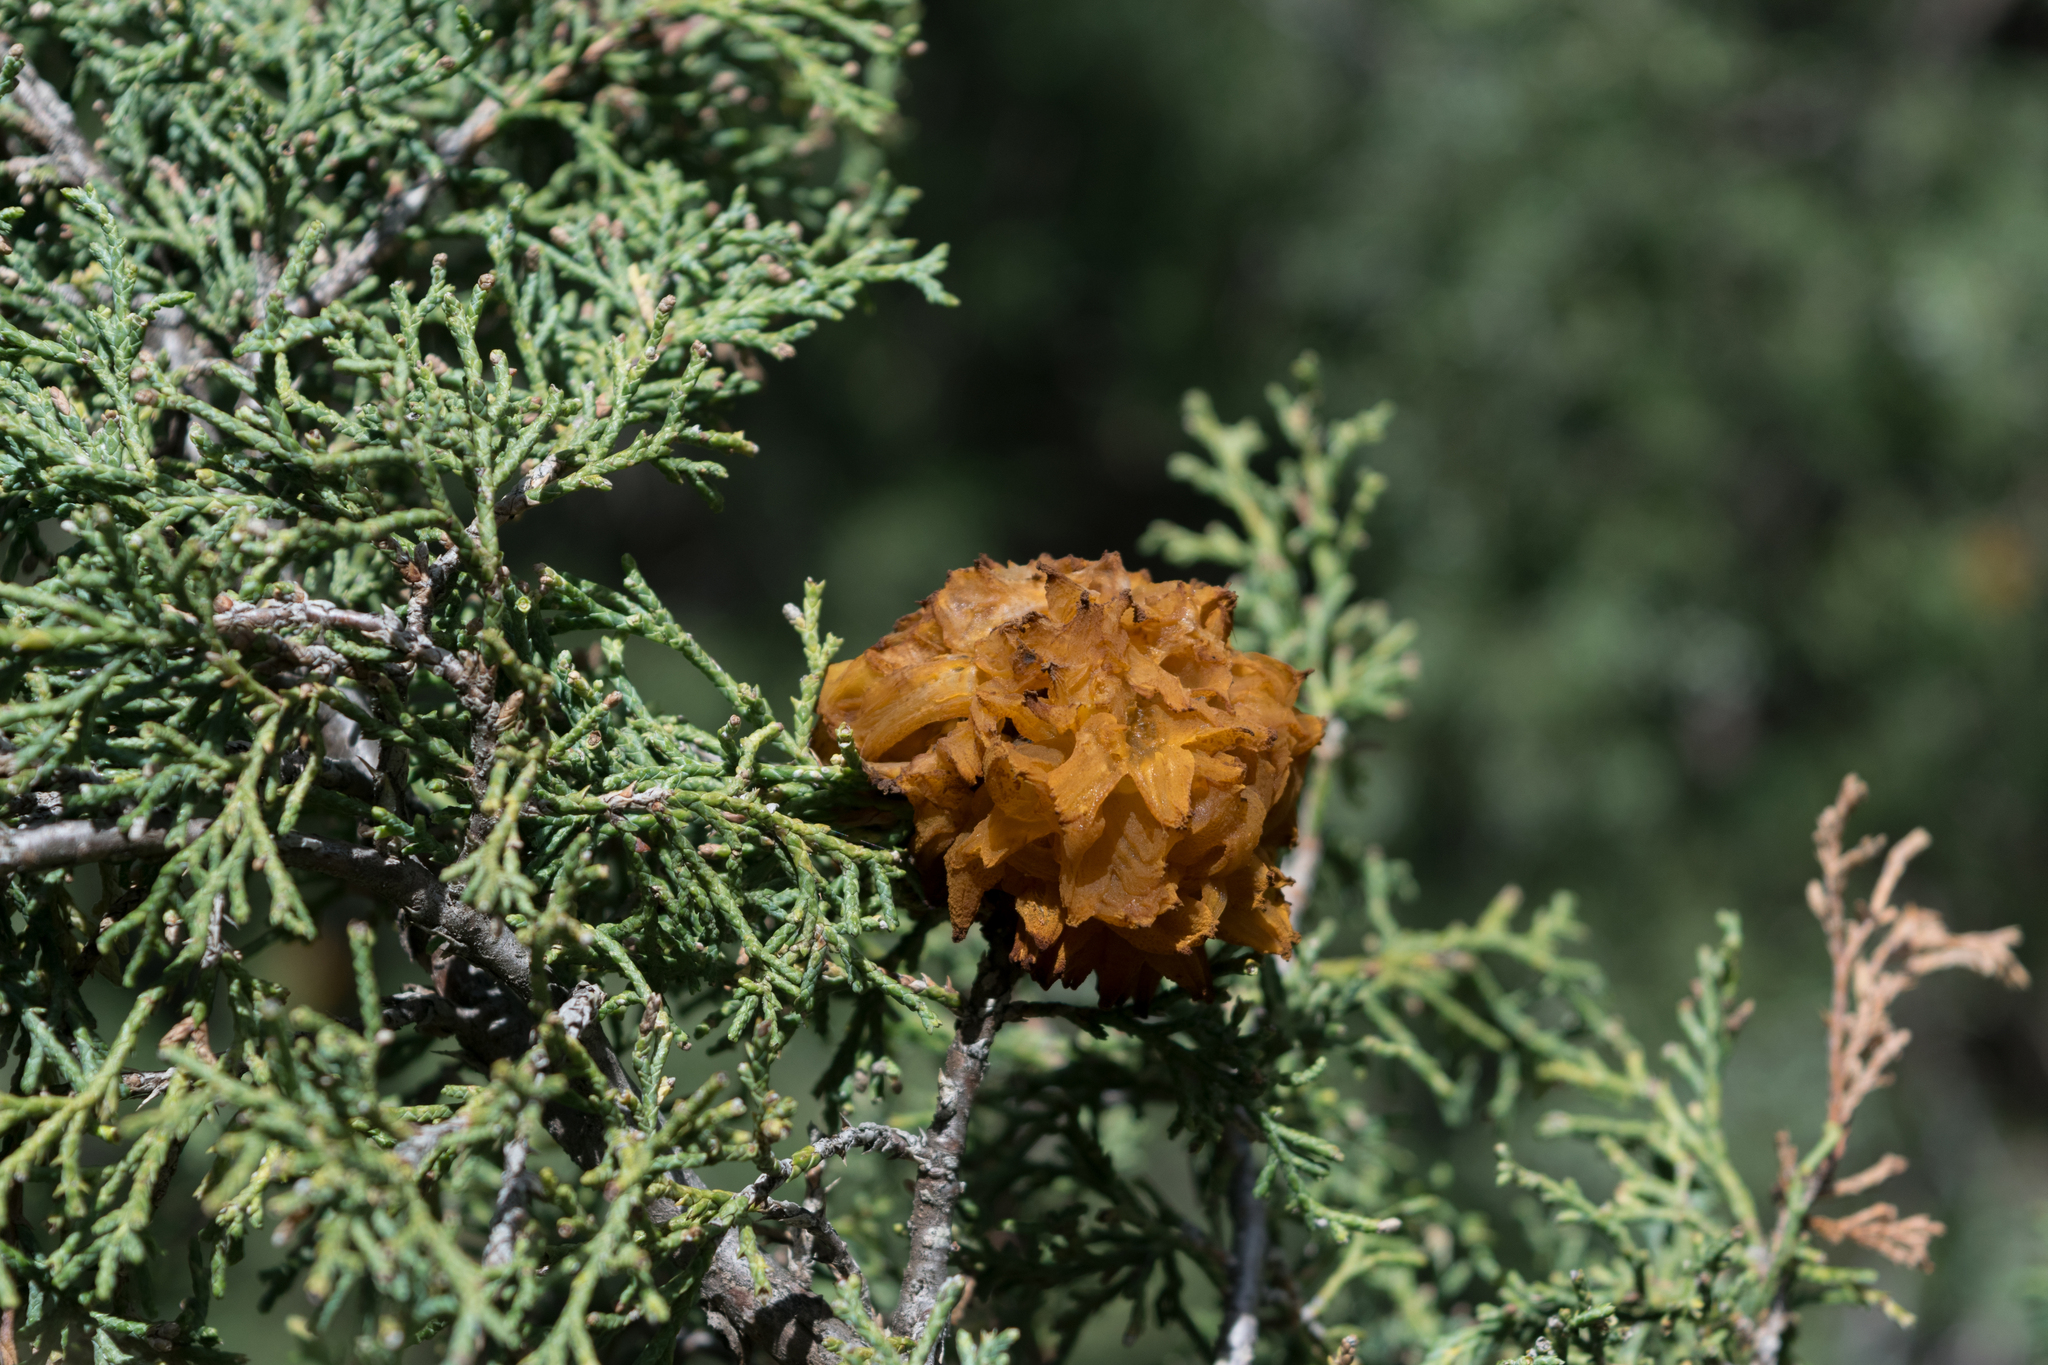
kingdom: Fungi
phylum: Basidiomycota
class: Pucciniomycetes
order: Pucciniales
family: Gymnosporangiaceae
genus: Gymnosporangium
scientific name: Gymnosporangium juniperi-virginianae
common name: Juniper-apple rust
